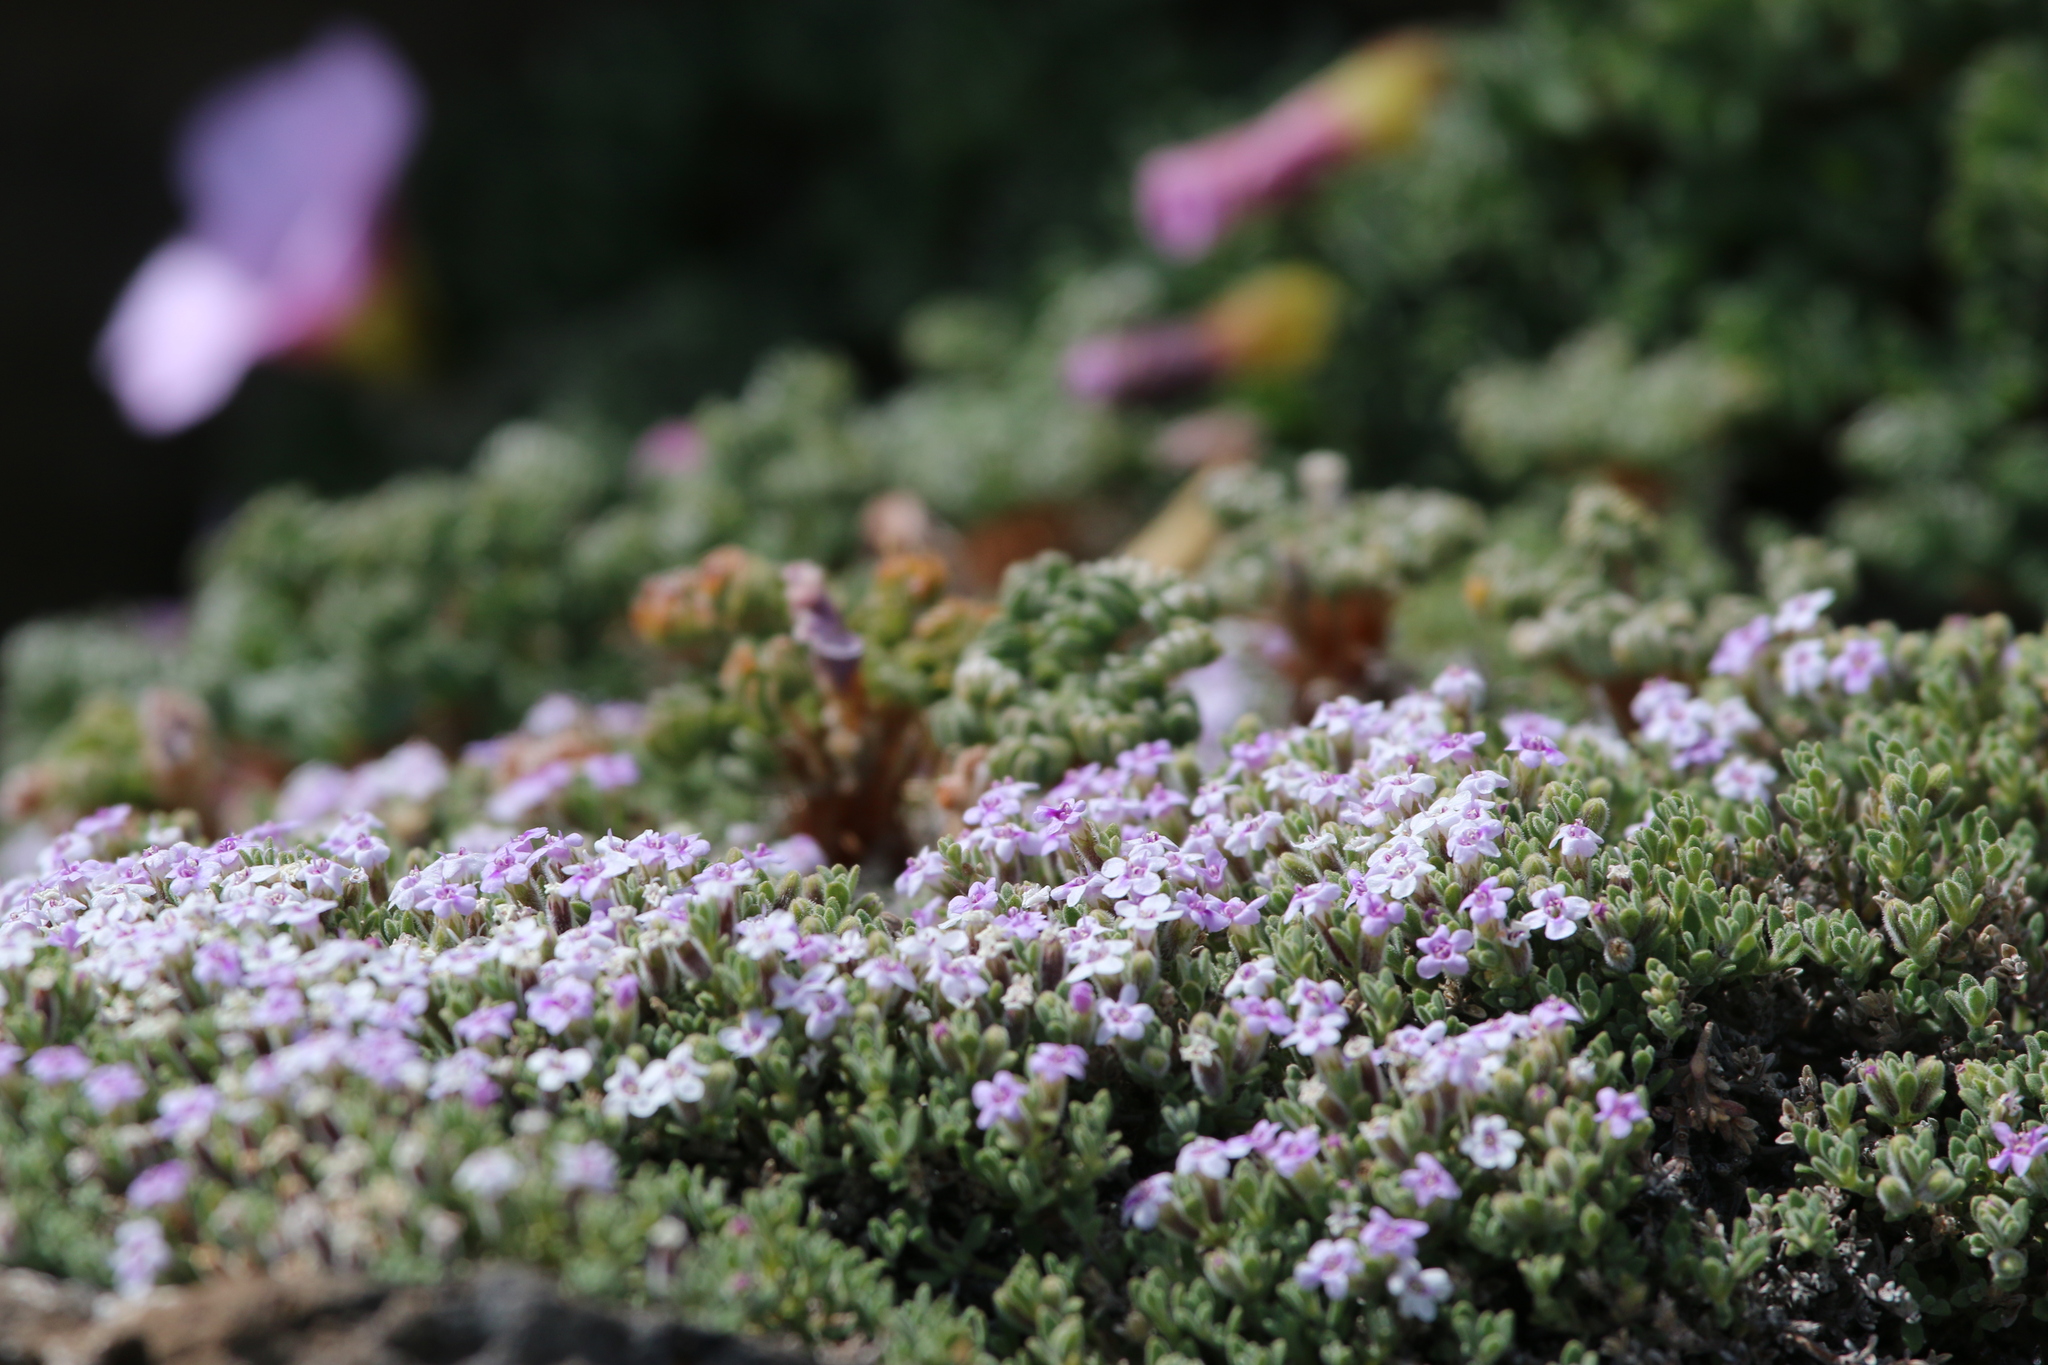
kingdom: Plantae
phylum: Tracheophyta
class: Magnoliopsida
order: Lamiales
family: Lamiaceae
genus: Clinopodium
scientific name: Clinopodium darwinii
